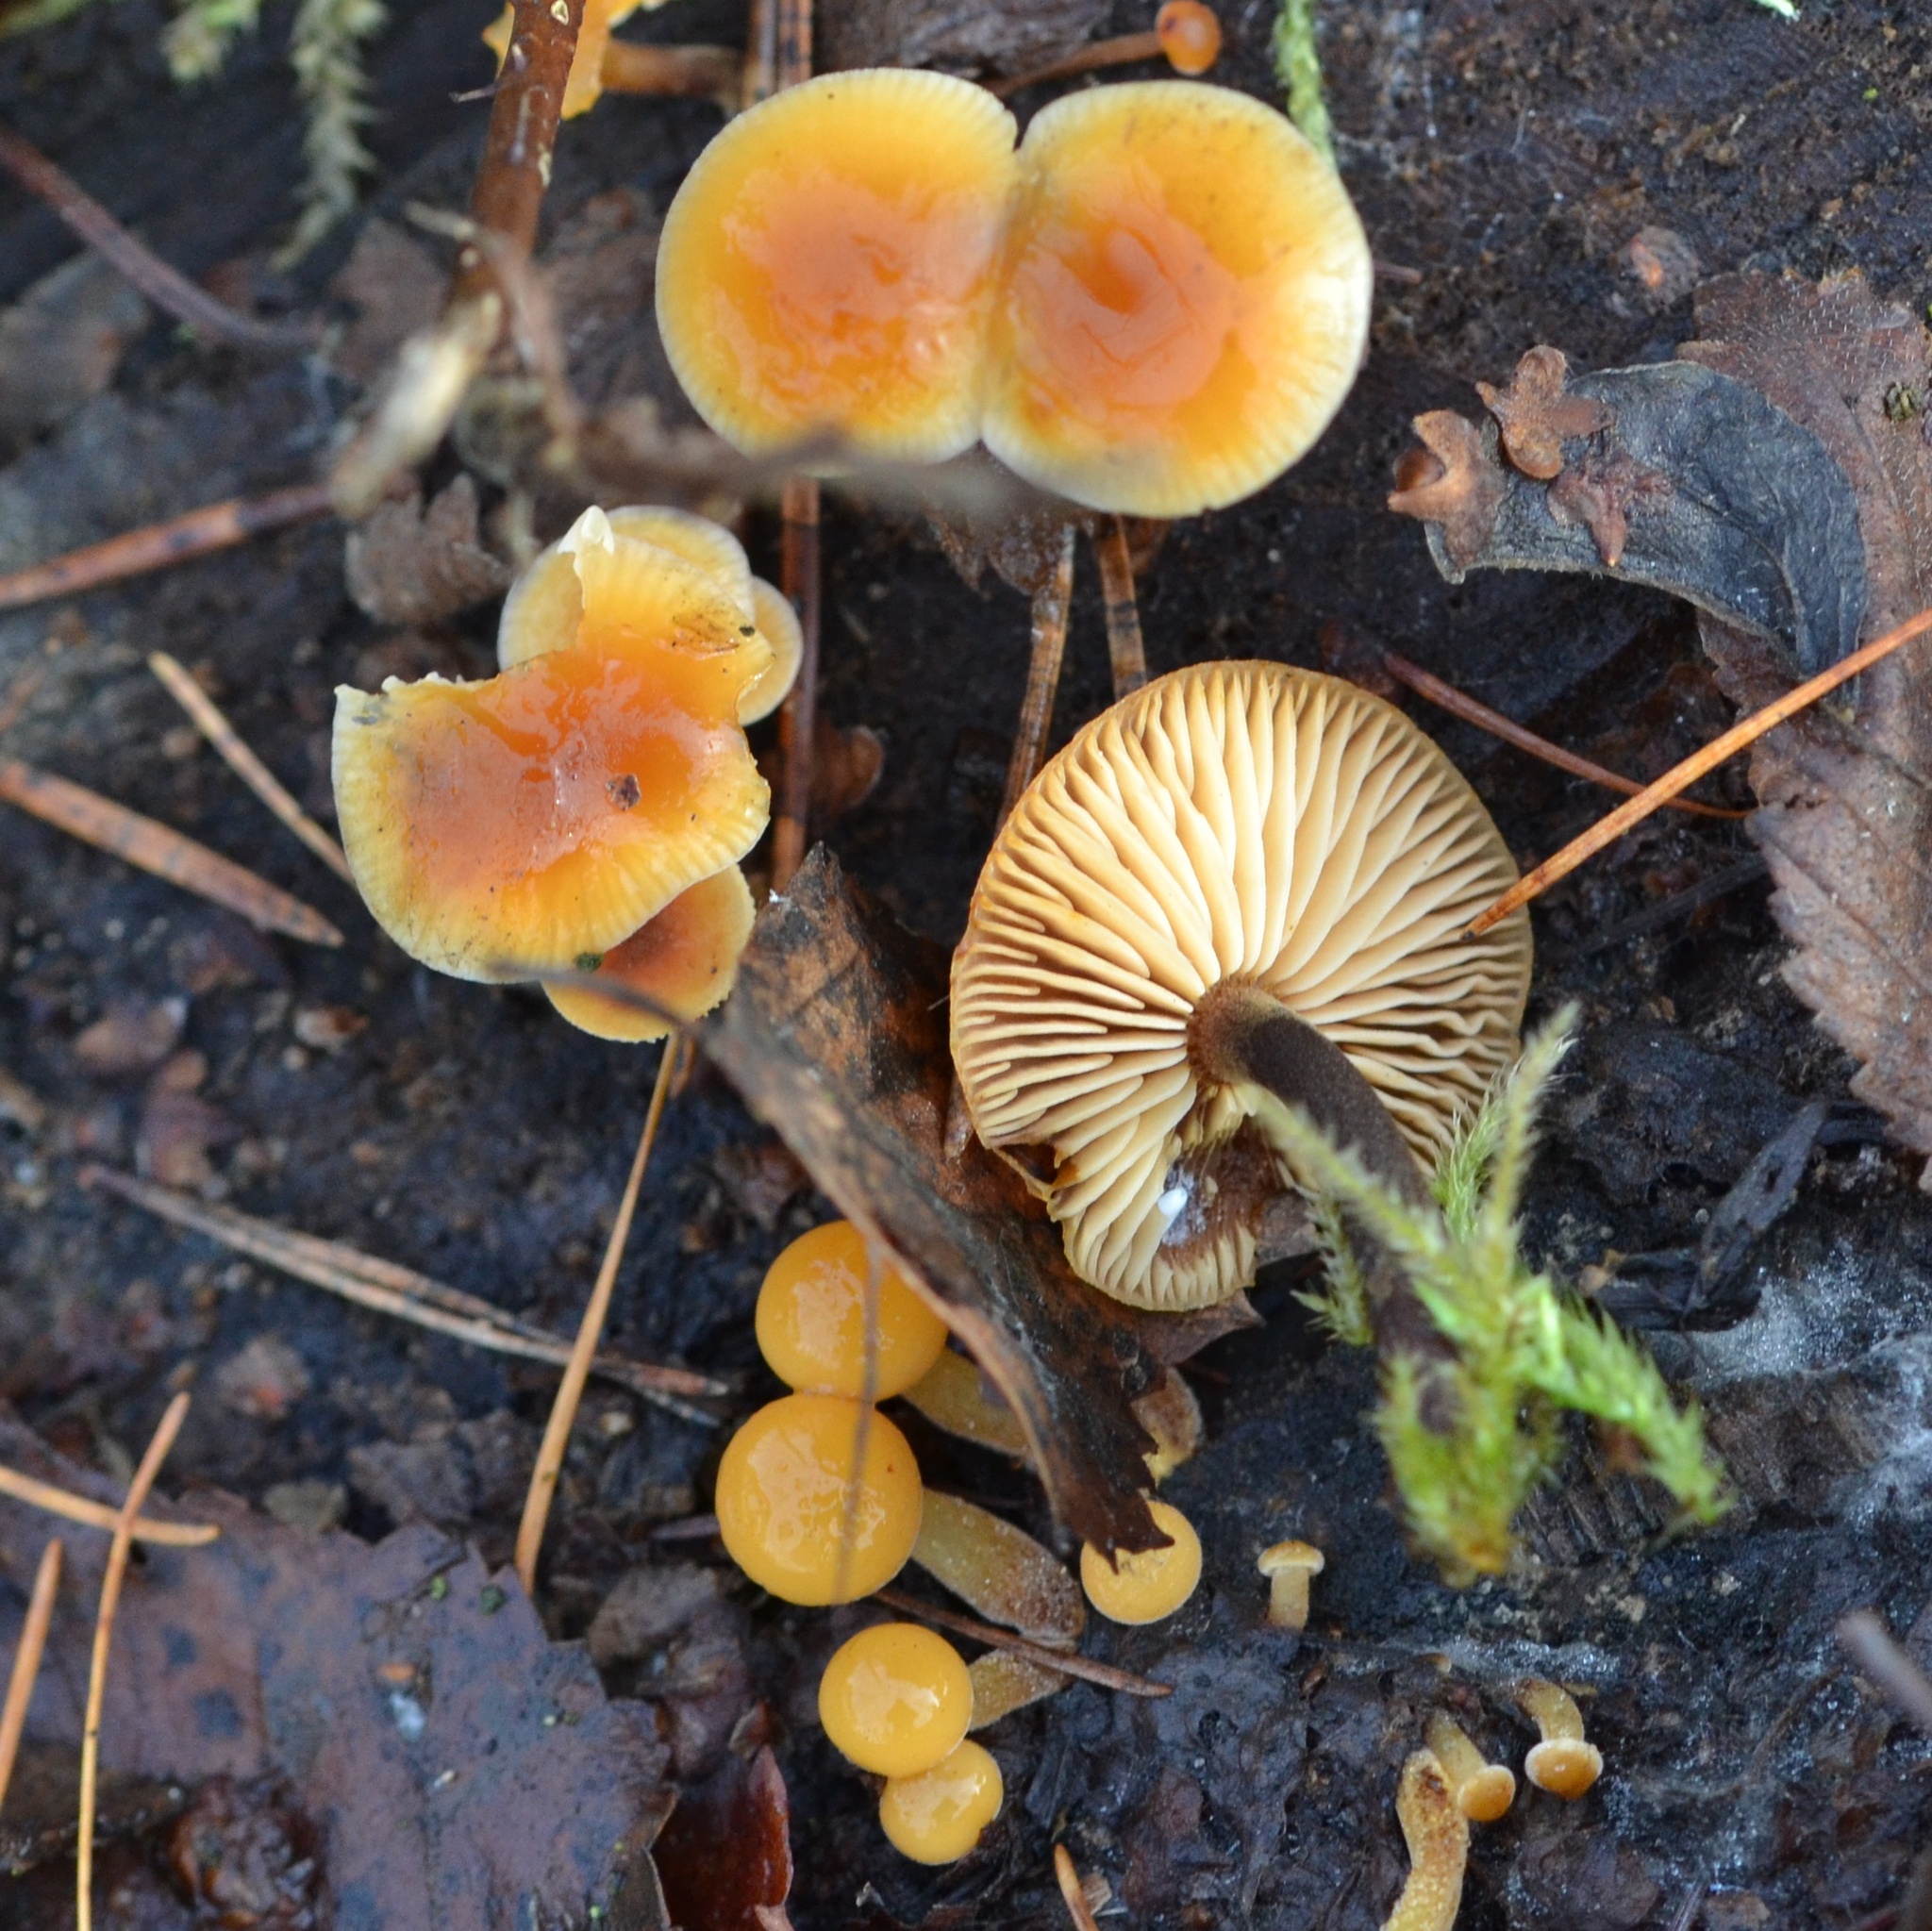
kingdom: Fungi
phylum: Basidiomycota
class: Agaricomycetes
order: Agaricales
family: Physalacriaceae
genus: Flammulina
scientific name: Flammulina
